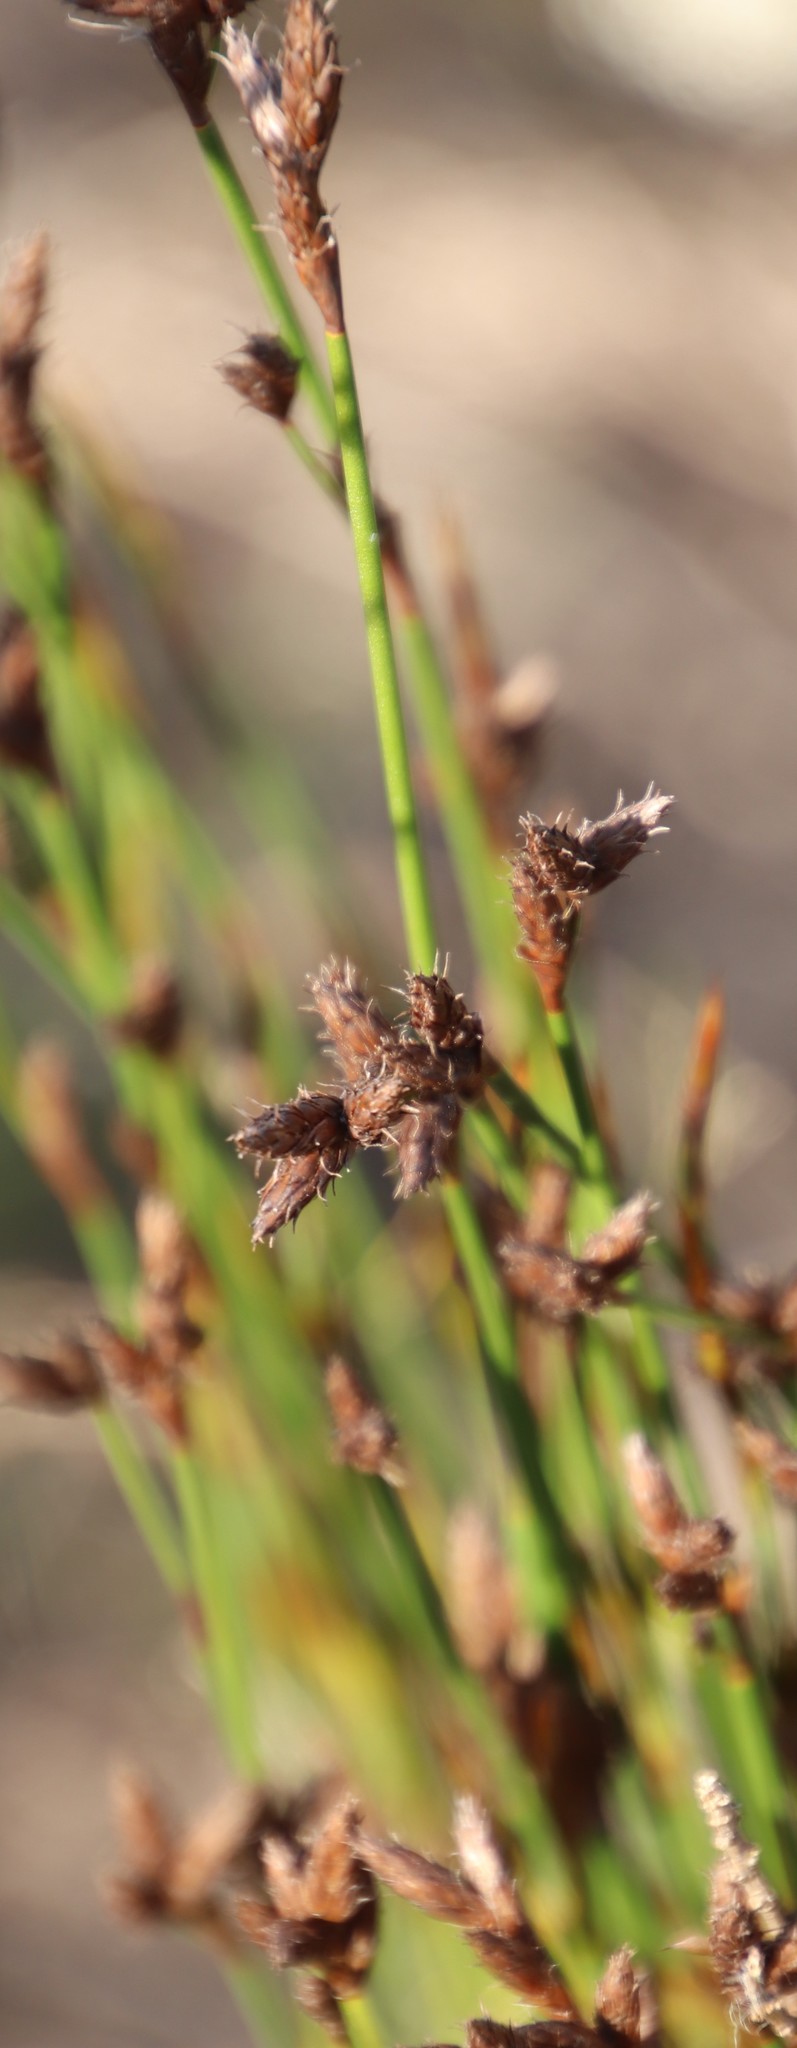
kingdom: Plantae
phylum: Tracheophyta
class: Liliopsida
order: Poales
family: Restionaceae
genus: Restio
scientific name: Restio capensis
